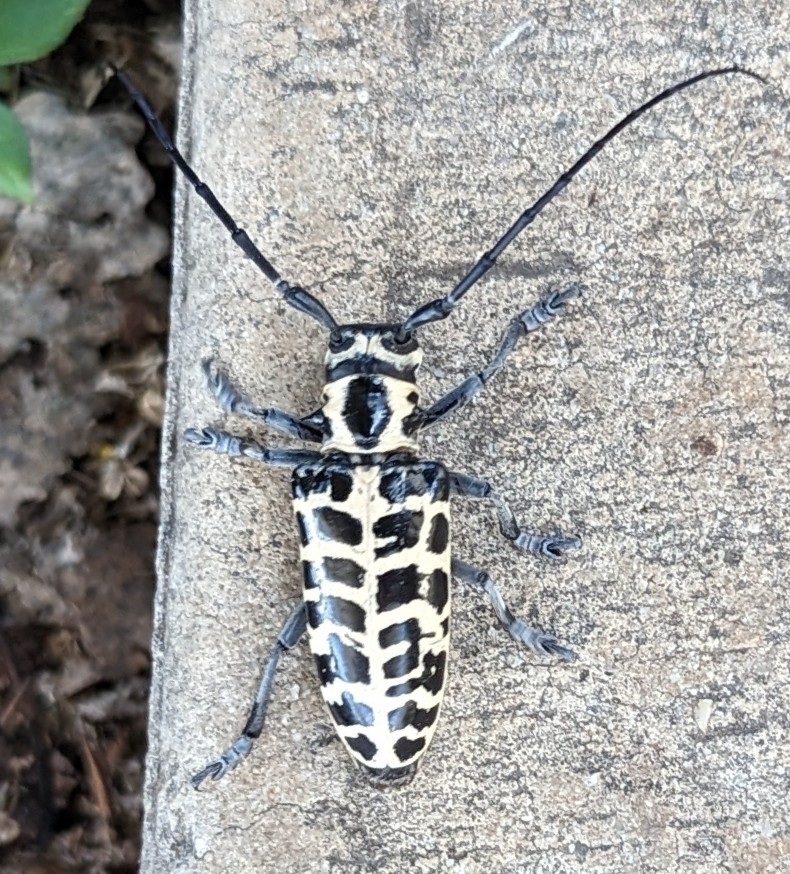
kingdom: Animalia
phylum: Arthropoda
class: Insecta
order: Coleoptera
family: Cerambycidae
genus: Plectrodera
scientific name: Plectrodera scalator
